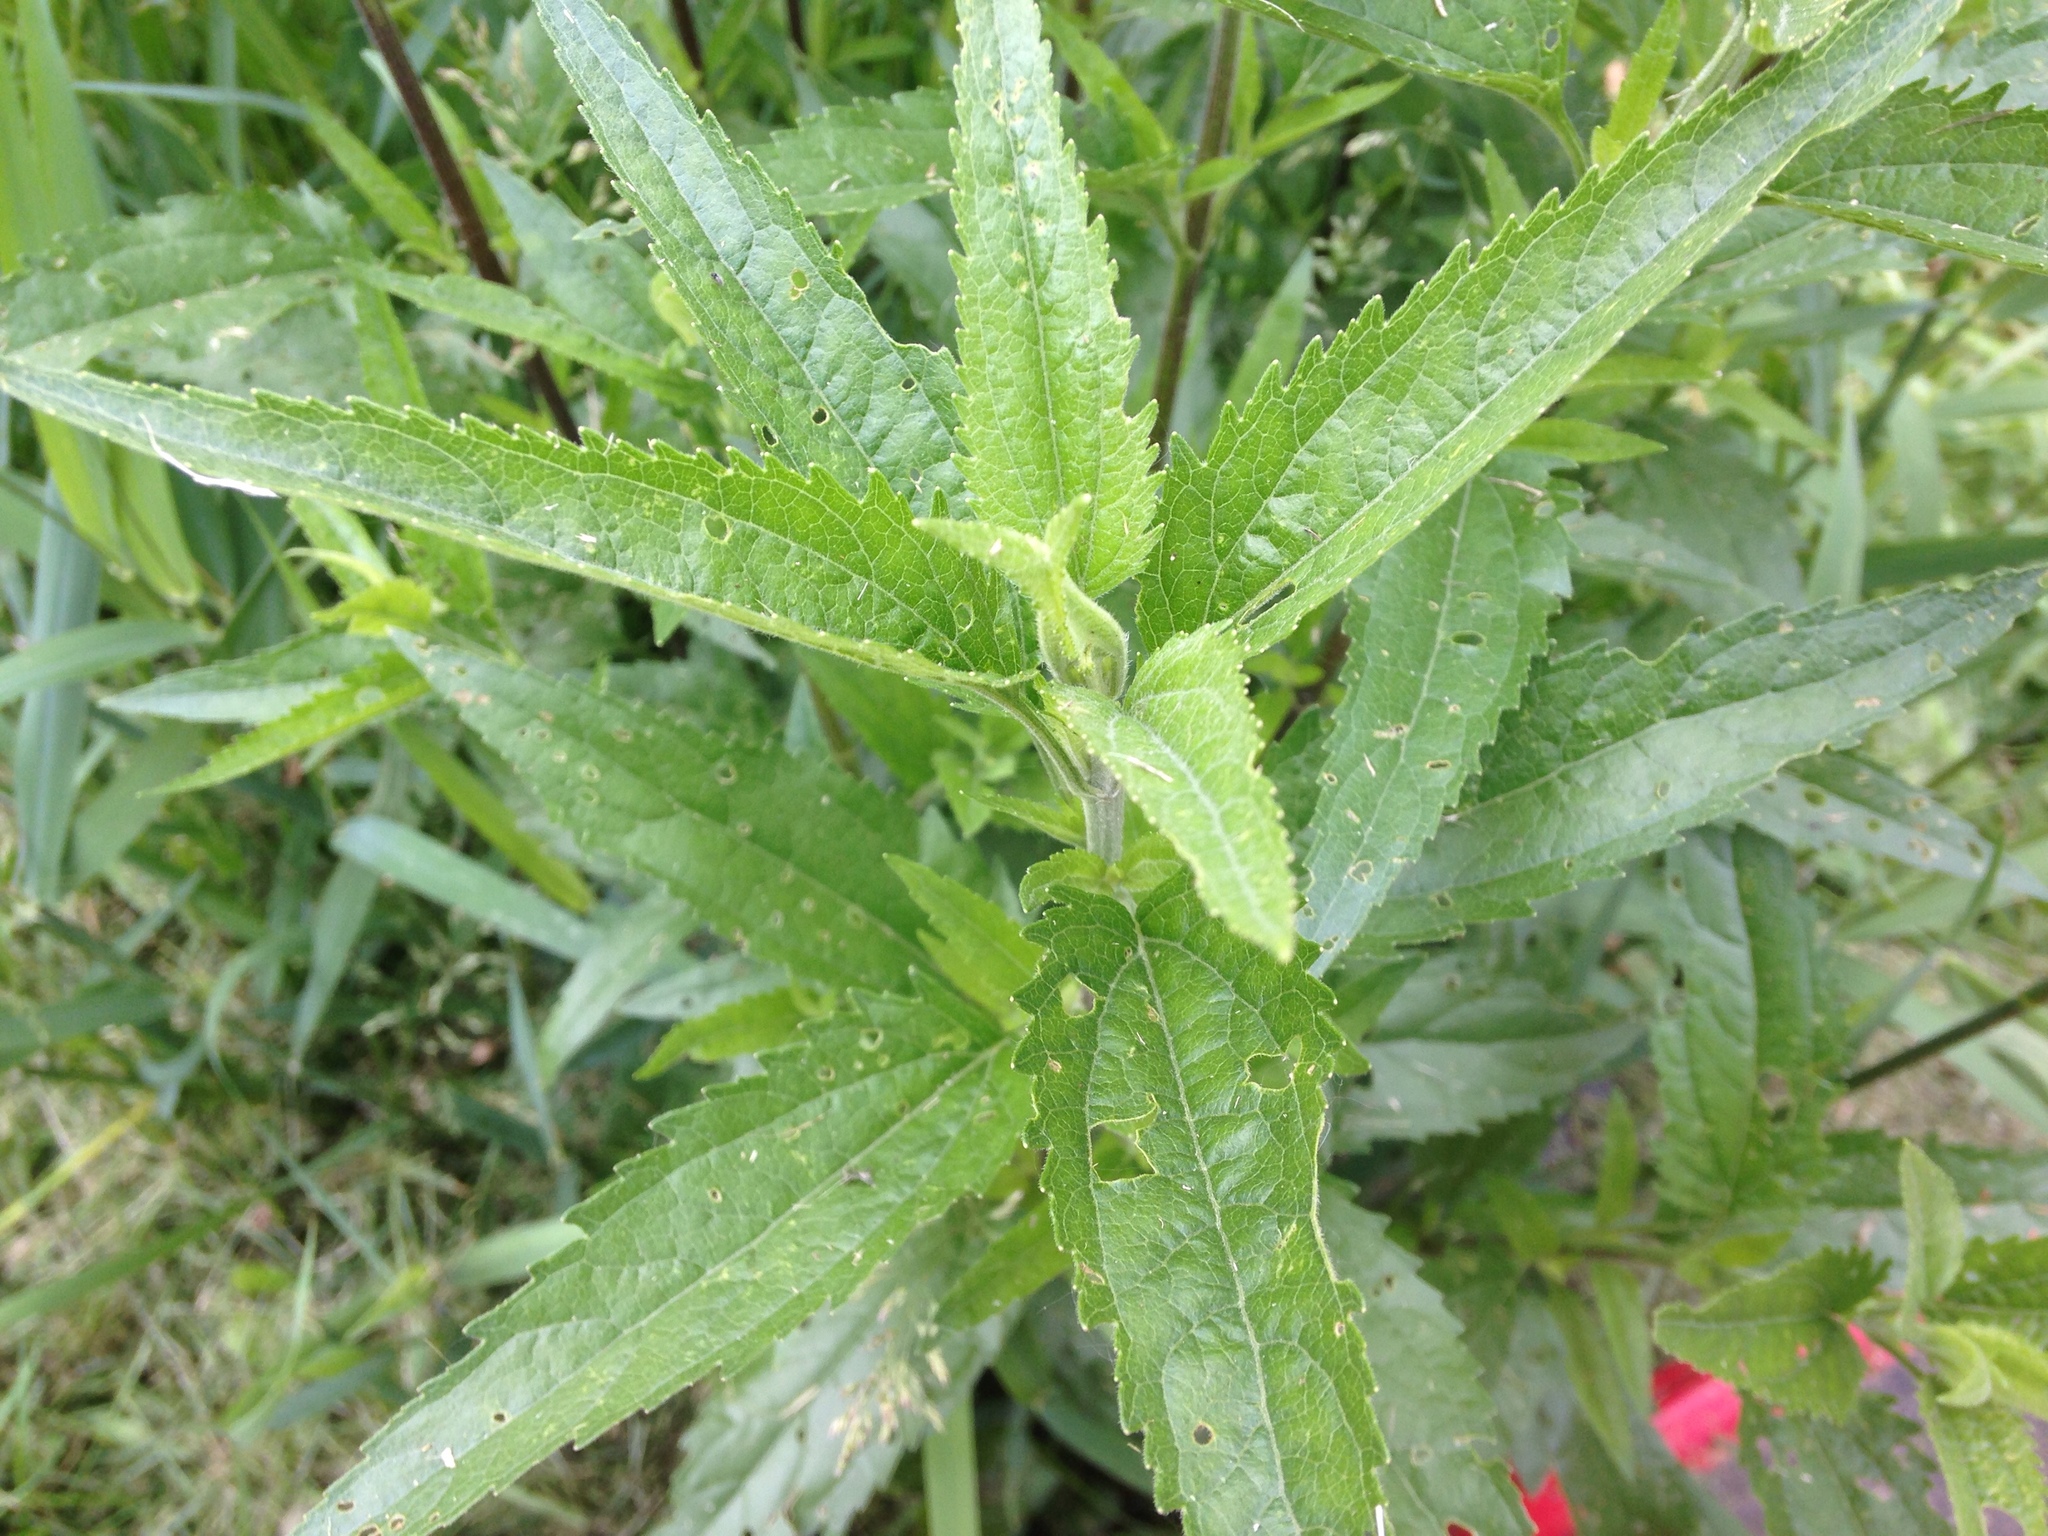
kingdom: Plantae
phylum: Tracheophyta
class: Magnoliopsida
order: Asterales
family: Asteraceae
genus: Eupatorium
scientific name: Eupatorium serotinum
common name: Late boneset
